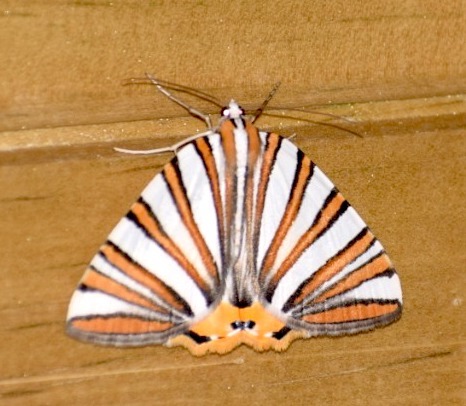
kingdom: Animalia
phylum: Arthropoda
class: Insecta
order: Lepidoptera
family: Geometridae
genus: Pityeja
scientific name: Pityeja histrionaria
